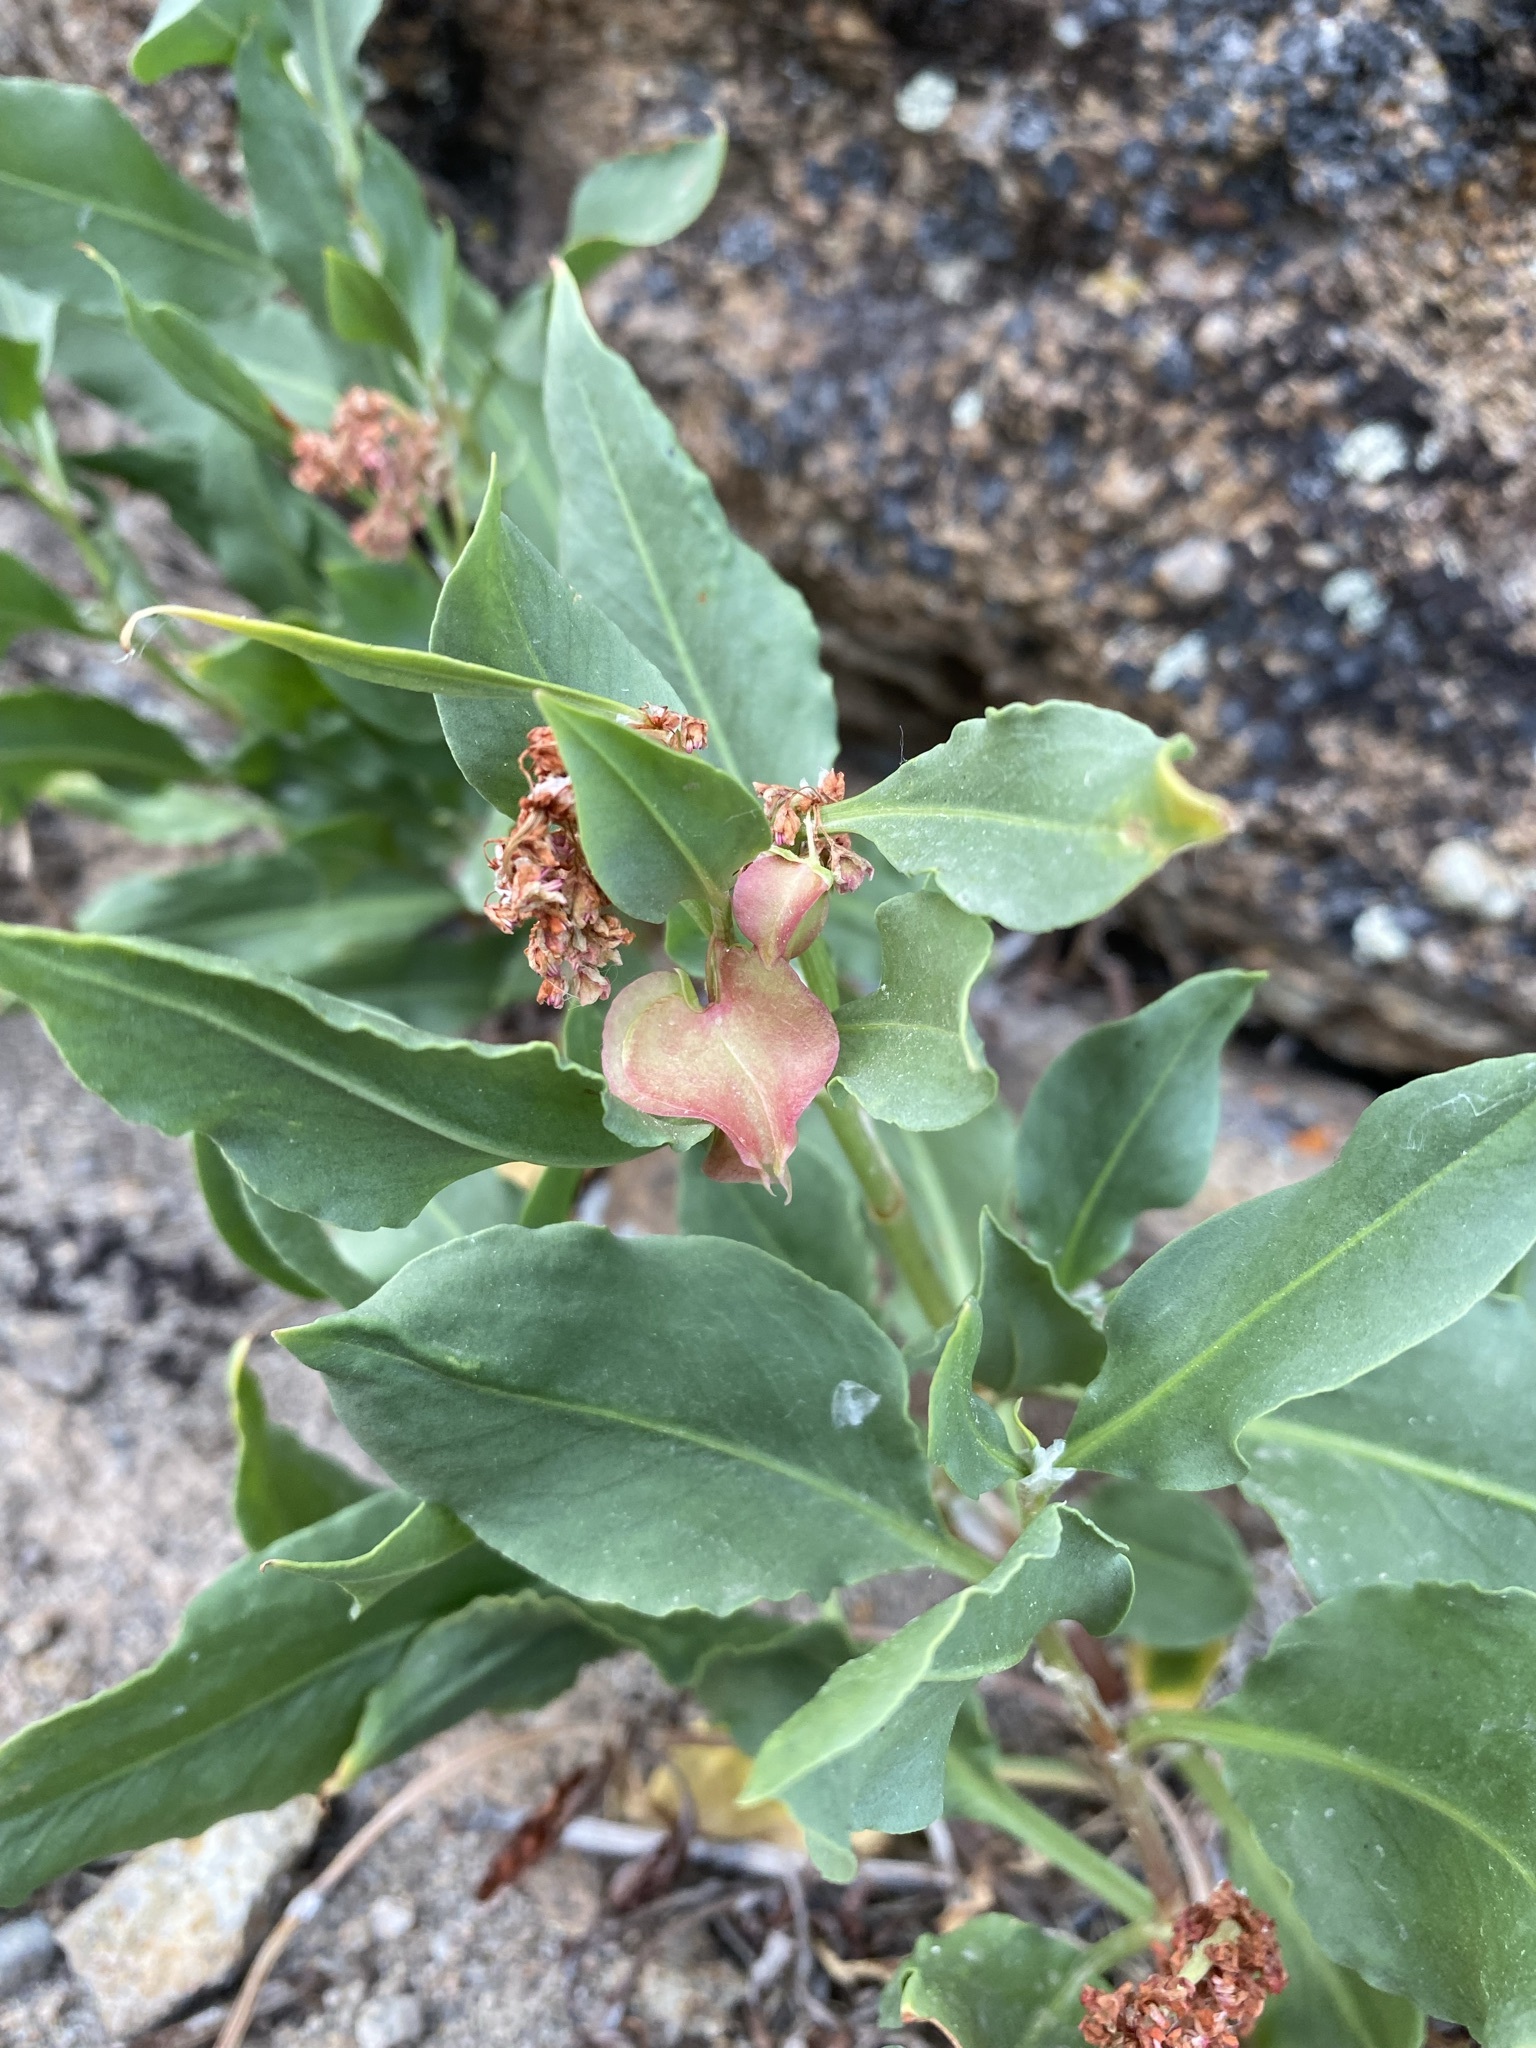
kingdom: Plantae
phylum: Tracheophyta
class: Magnoliopsida
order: Caryophyllales
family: Polygonaceae
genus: Rumex
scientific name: Rumex venosus
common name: Winged dock
